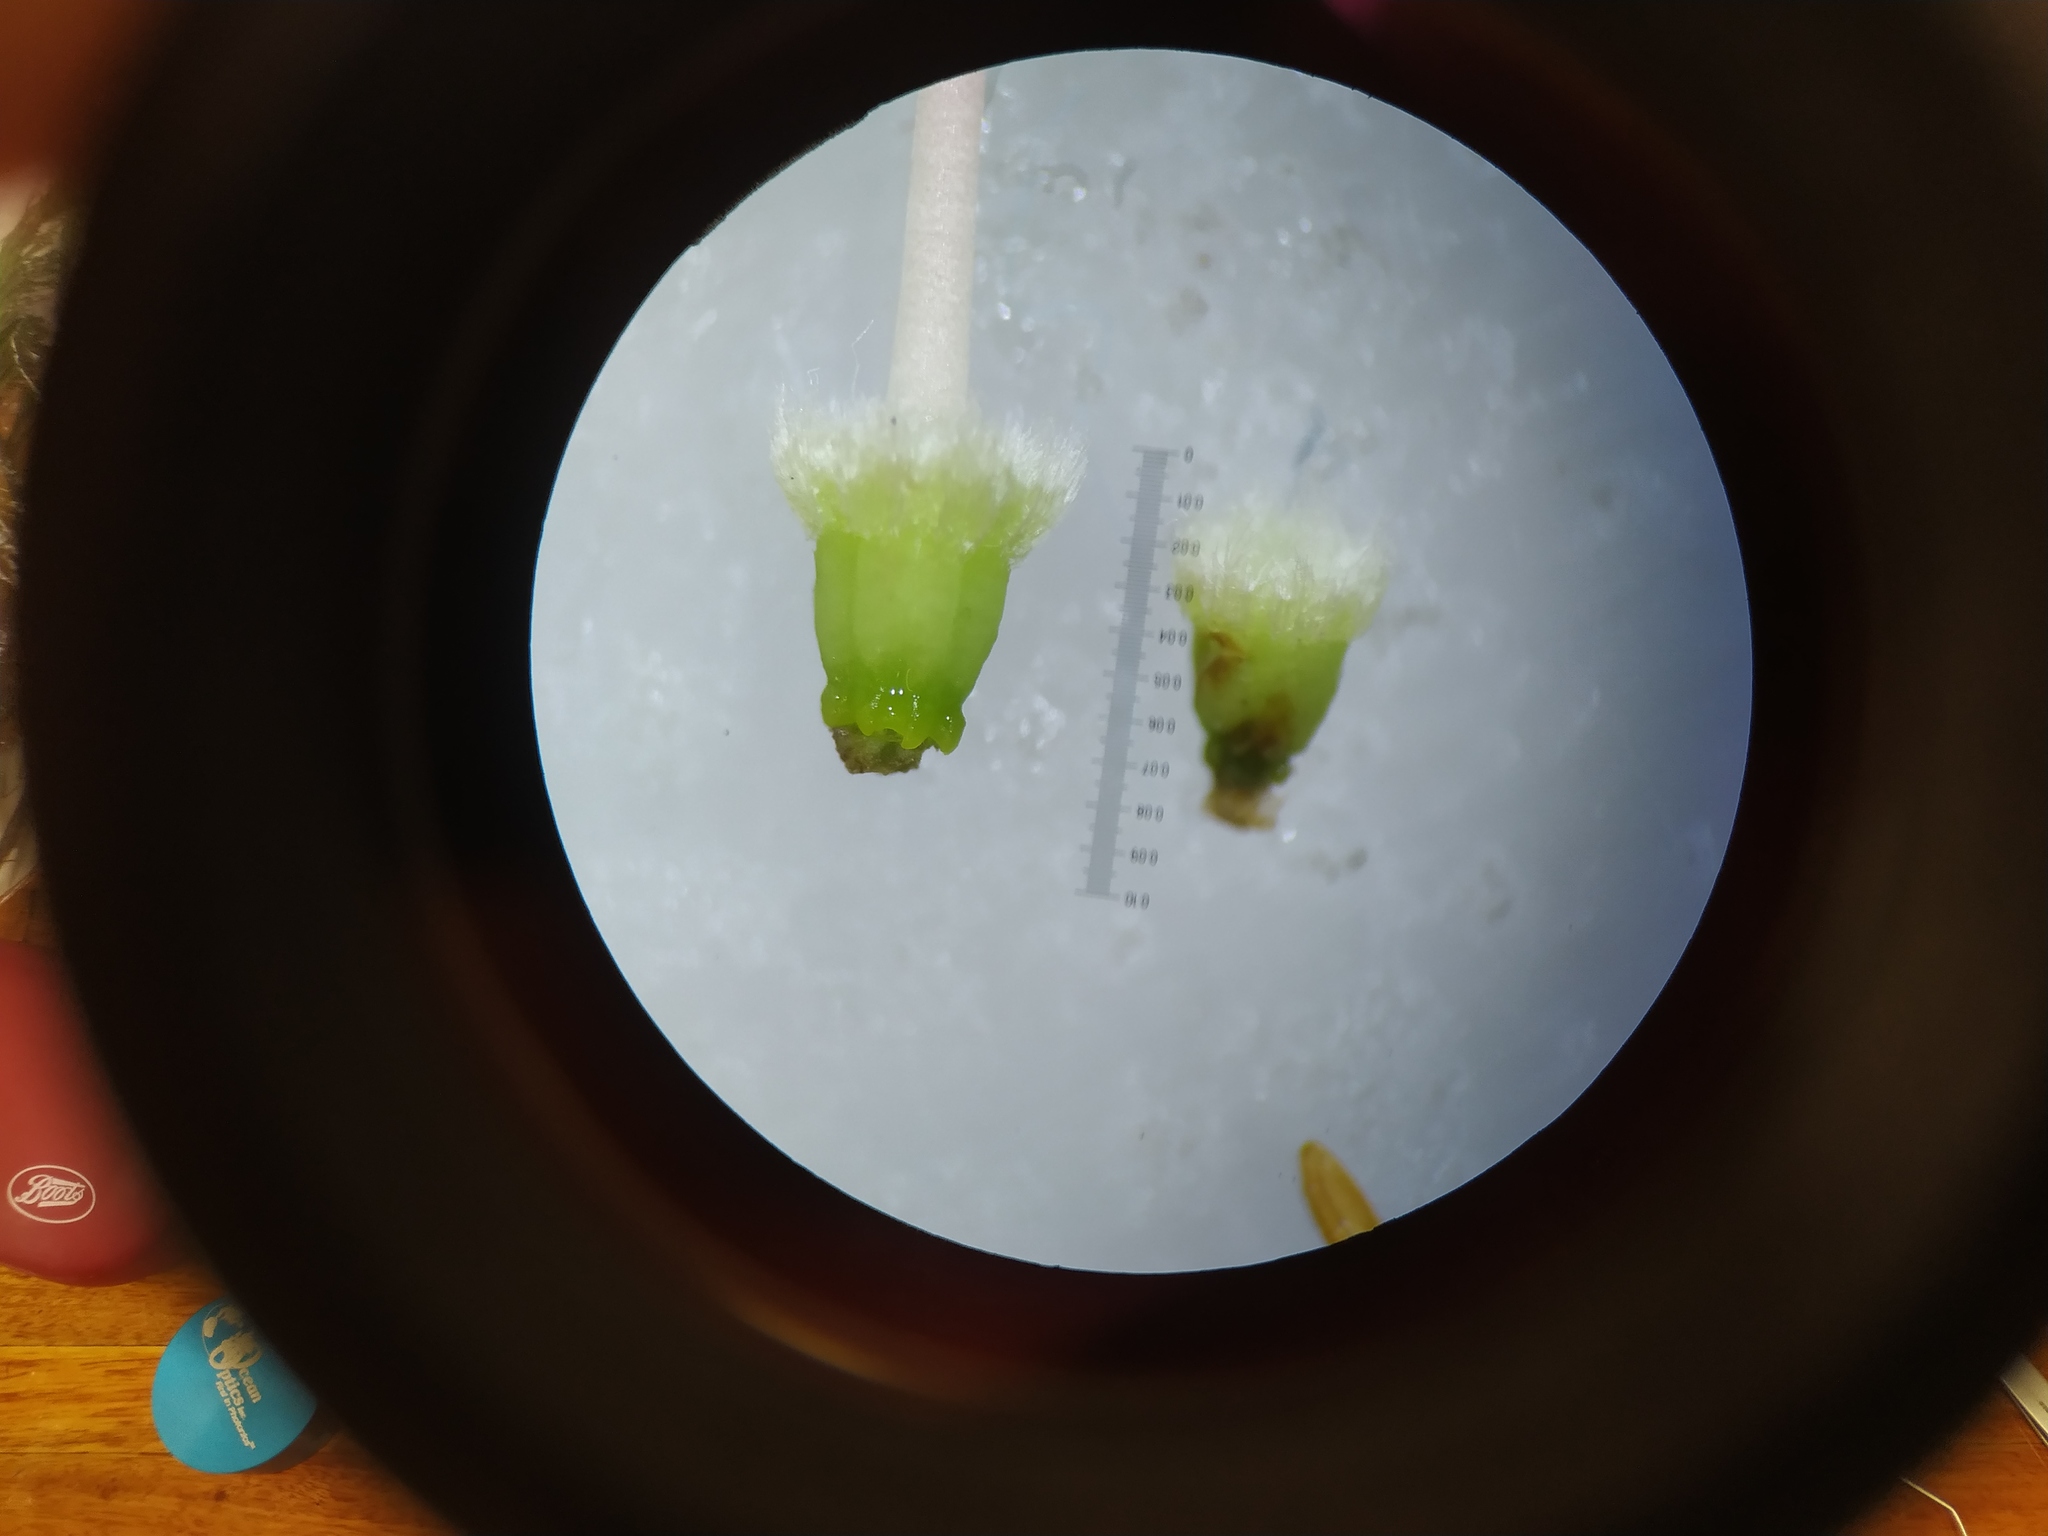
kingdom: Plantae
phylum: Tracheophyta
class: Magnoliopsida
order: Ericales
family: Ericaceae
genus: Erica
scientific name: Erica vestita
